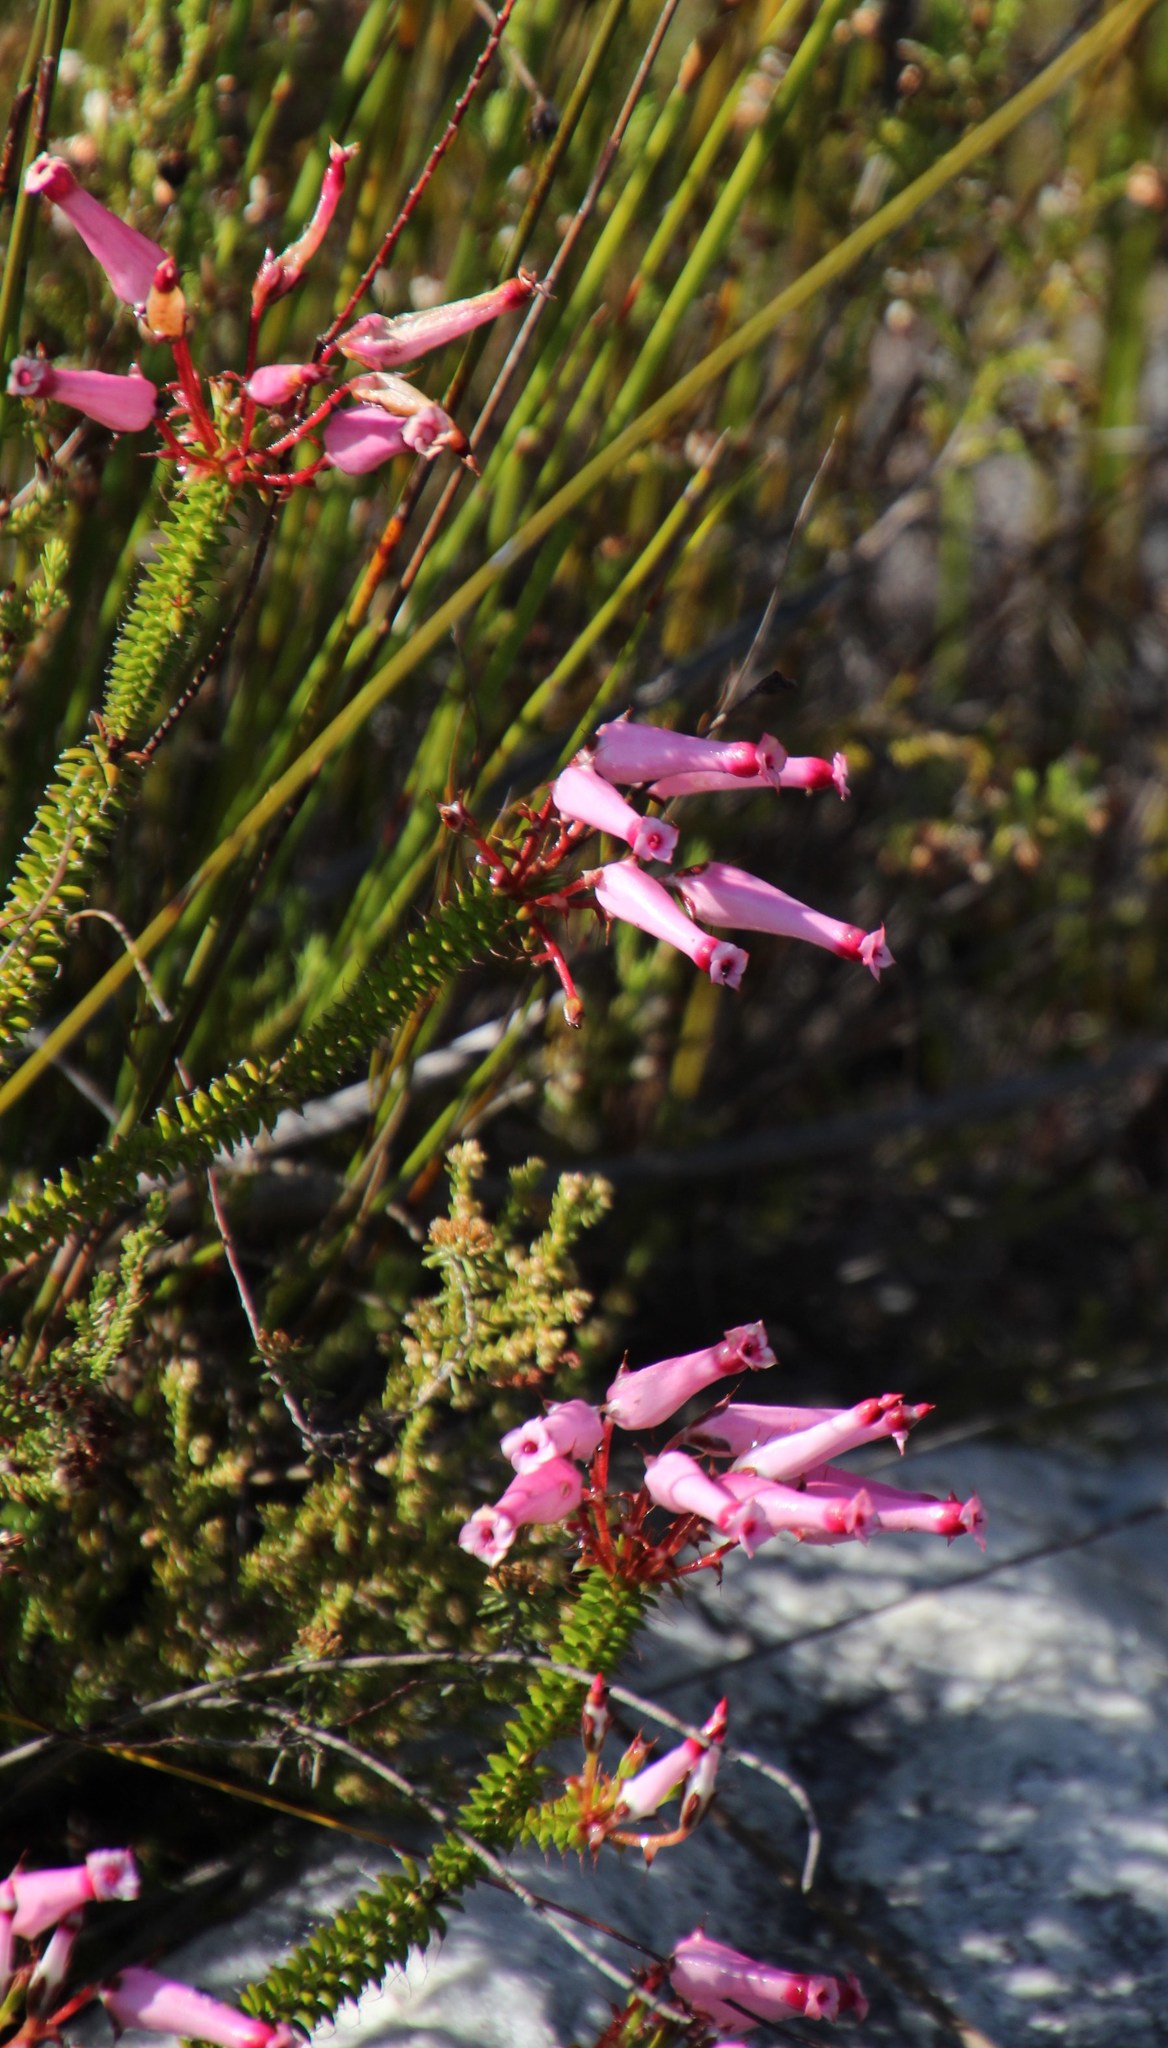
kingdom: Plantae
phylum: Tracheophyta
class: Magnoliopsida
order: Ericales
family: Ericaceae
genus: Erica
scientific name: Erica retorta
